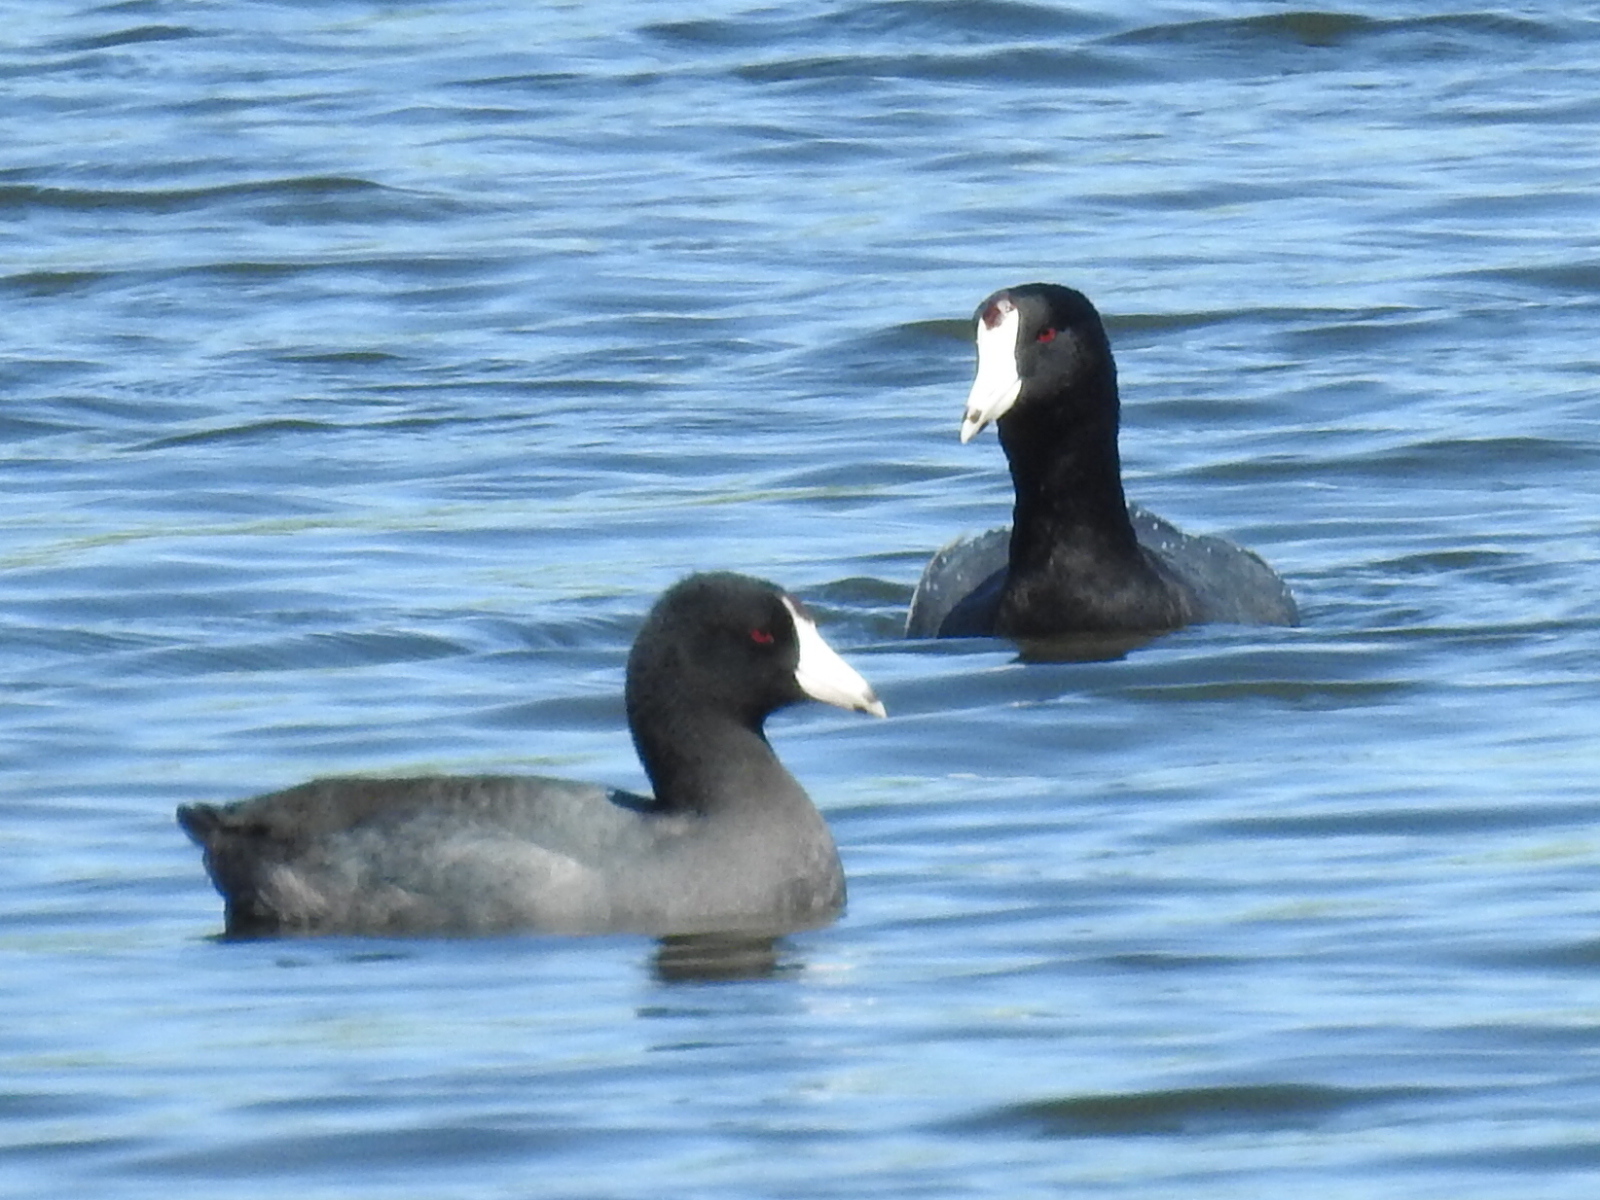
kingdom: Animalia
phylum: Chordata
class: Aves
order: Gruiformes
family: Rallidae
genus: Fulica
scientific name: Fulica americana
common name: American coot
